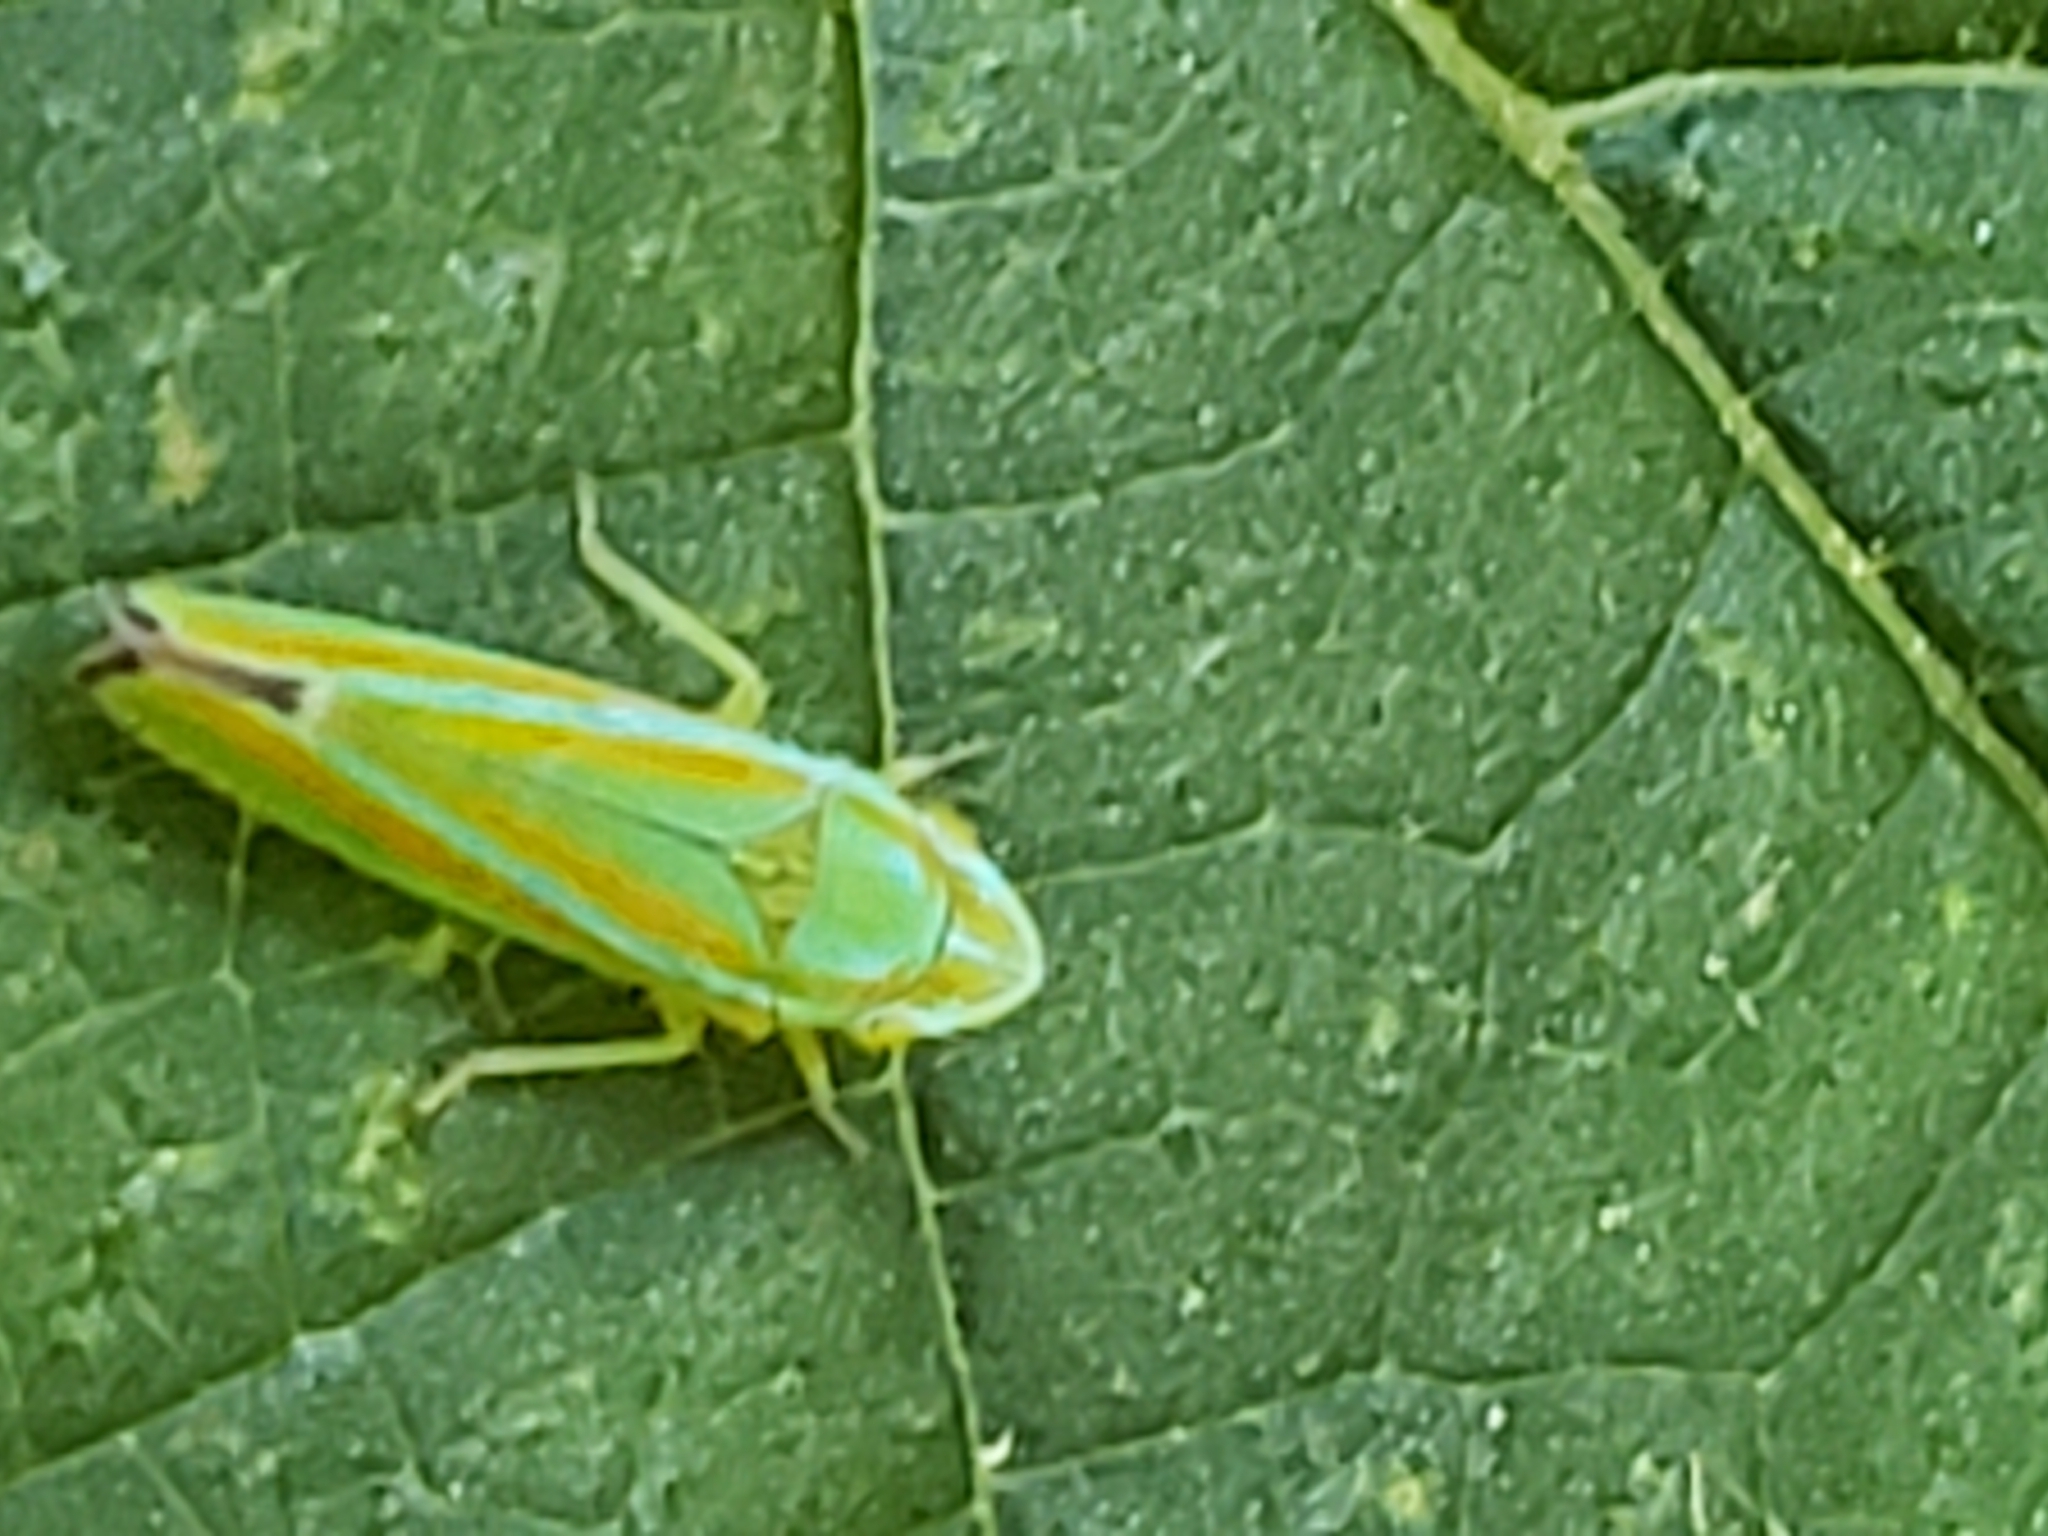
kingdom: Animalia
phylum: Arthropoda
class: Insecta
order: Hemiptera
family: Cicadellidae
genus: Graphocephala
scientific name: Graphocephala versuta
